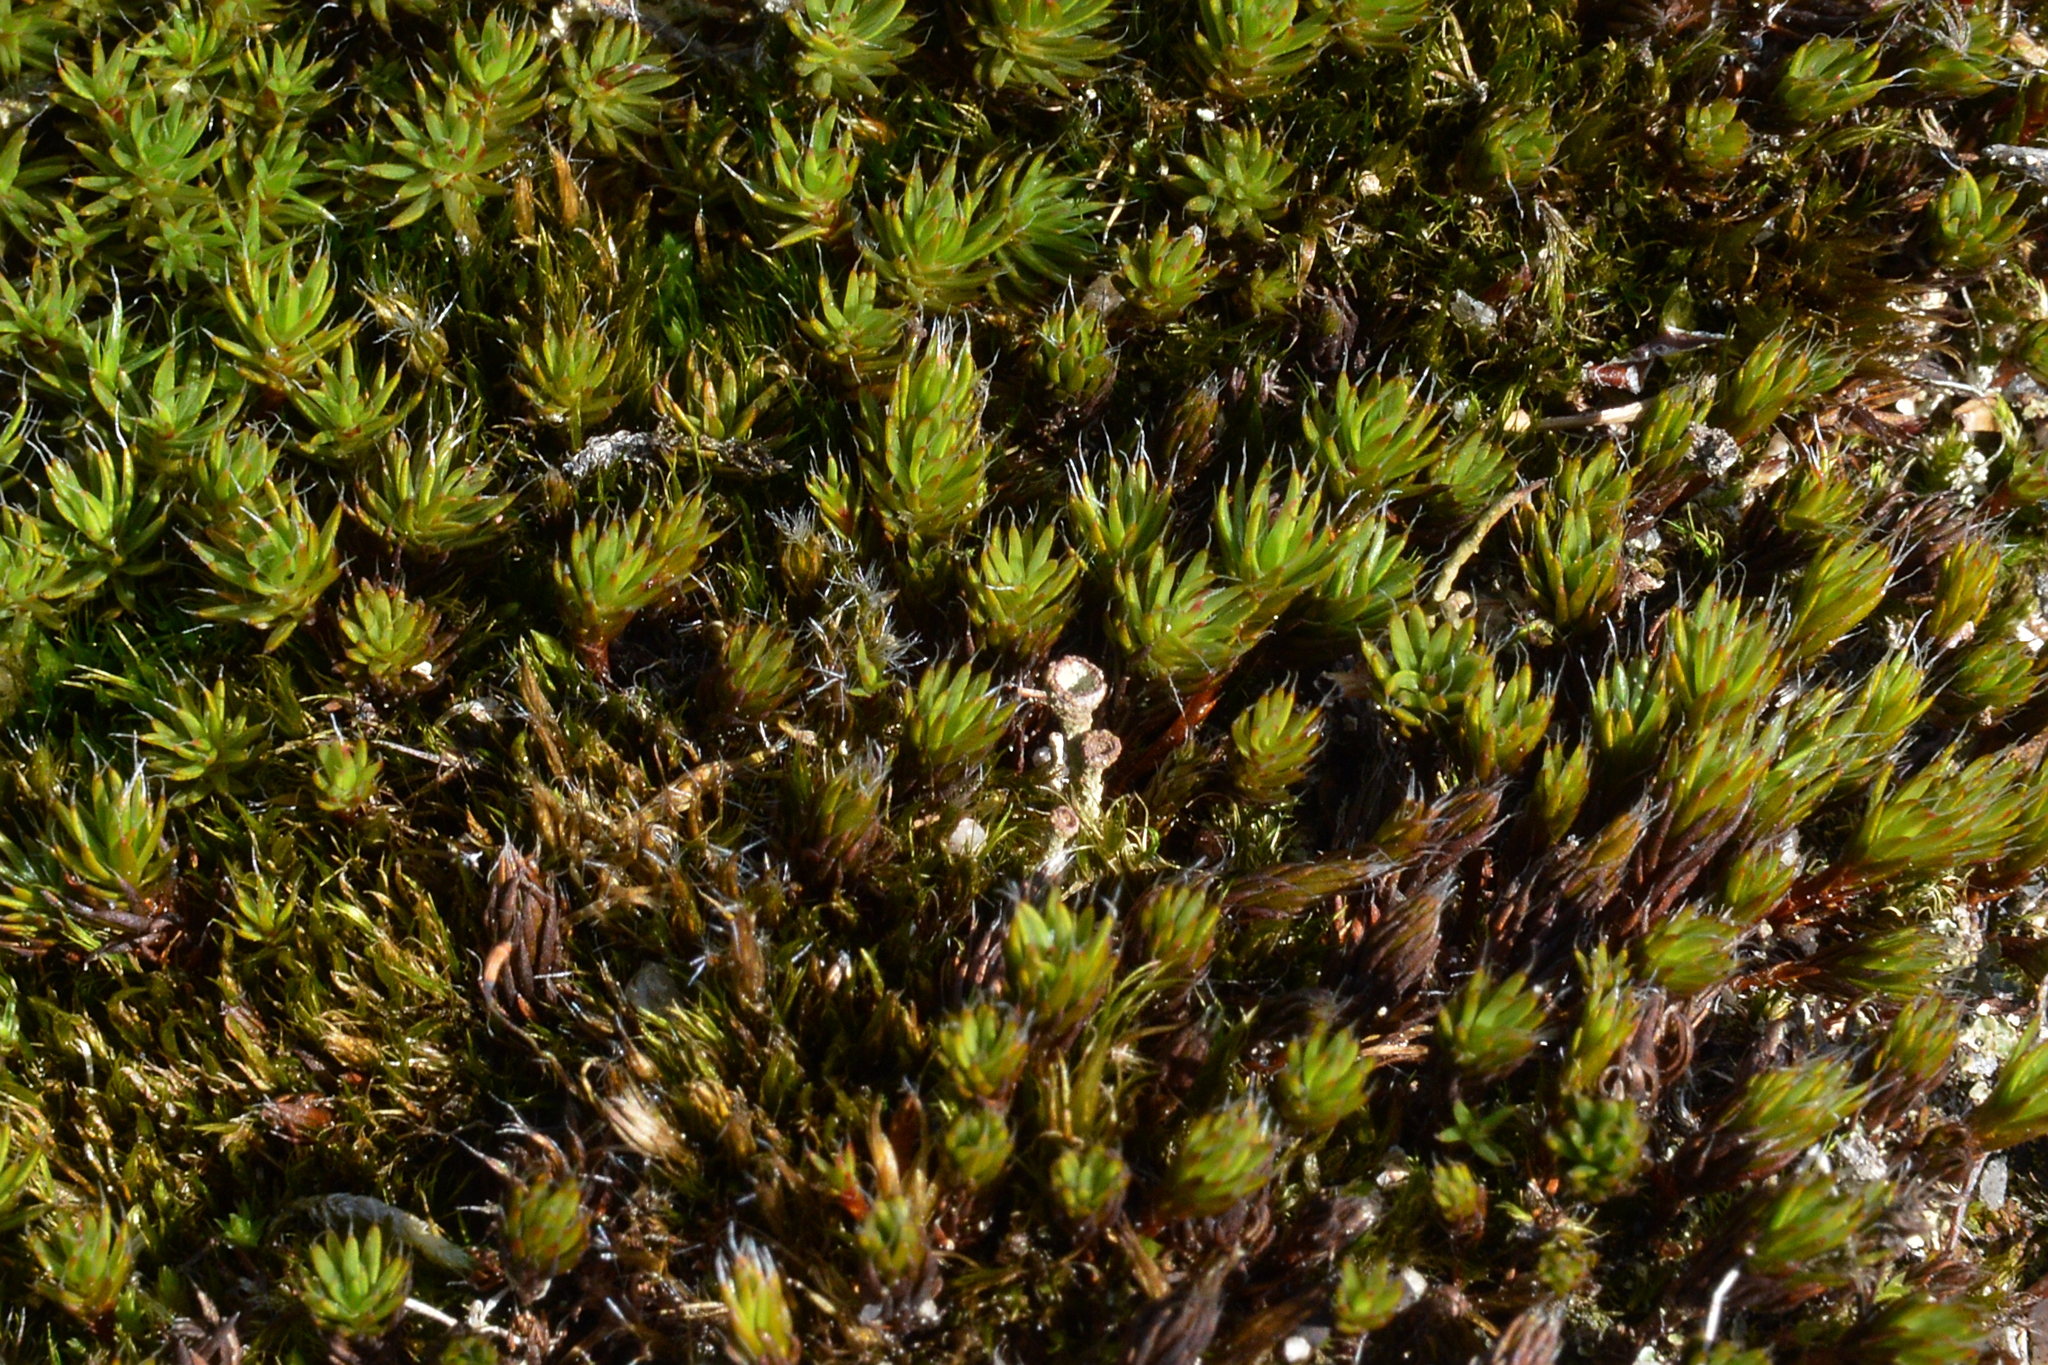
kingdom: Plantae
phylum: Bryophyta
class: Polytrichopsida
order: Polytrichales
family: Polytrichaceae
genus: Polytrichum
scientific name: Polytrichum piliferum
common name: Bristly haircap
